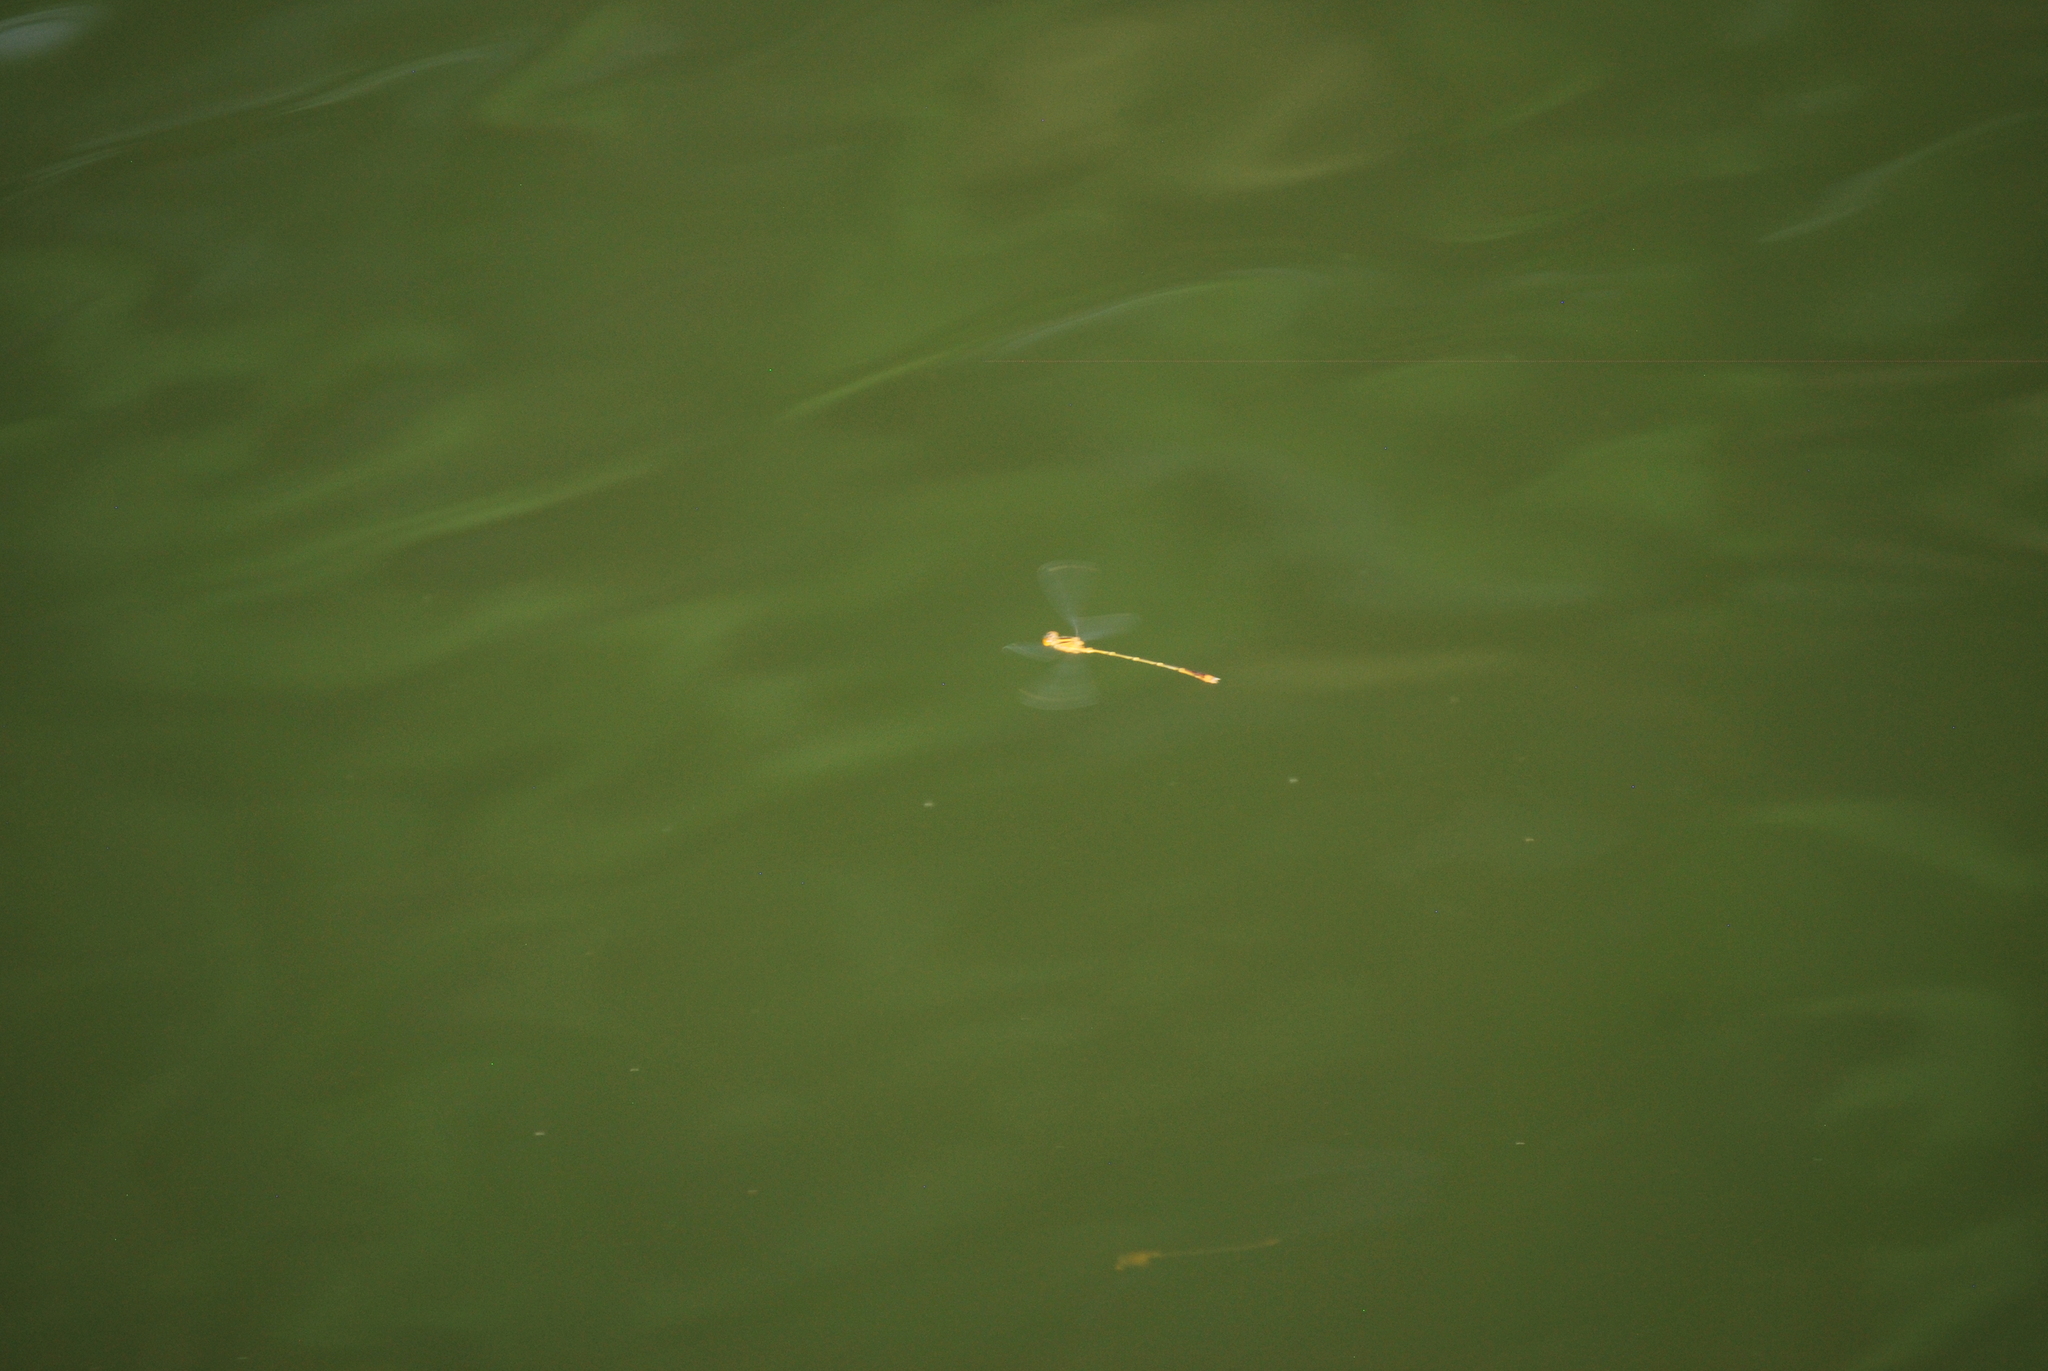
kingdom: Animalia
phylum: Arthropoda
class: Insecta
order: Odonata
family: Coenagrionidae
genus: Enallagma
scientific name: Enallagma signatum
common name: Orange bluet
